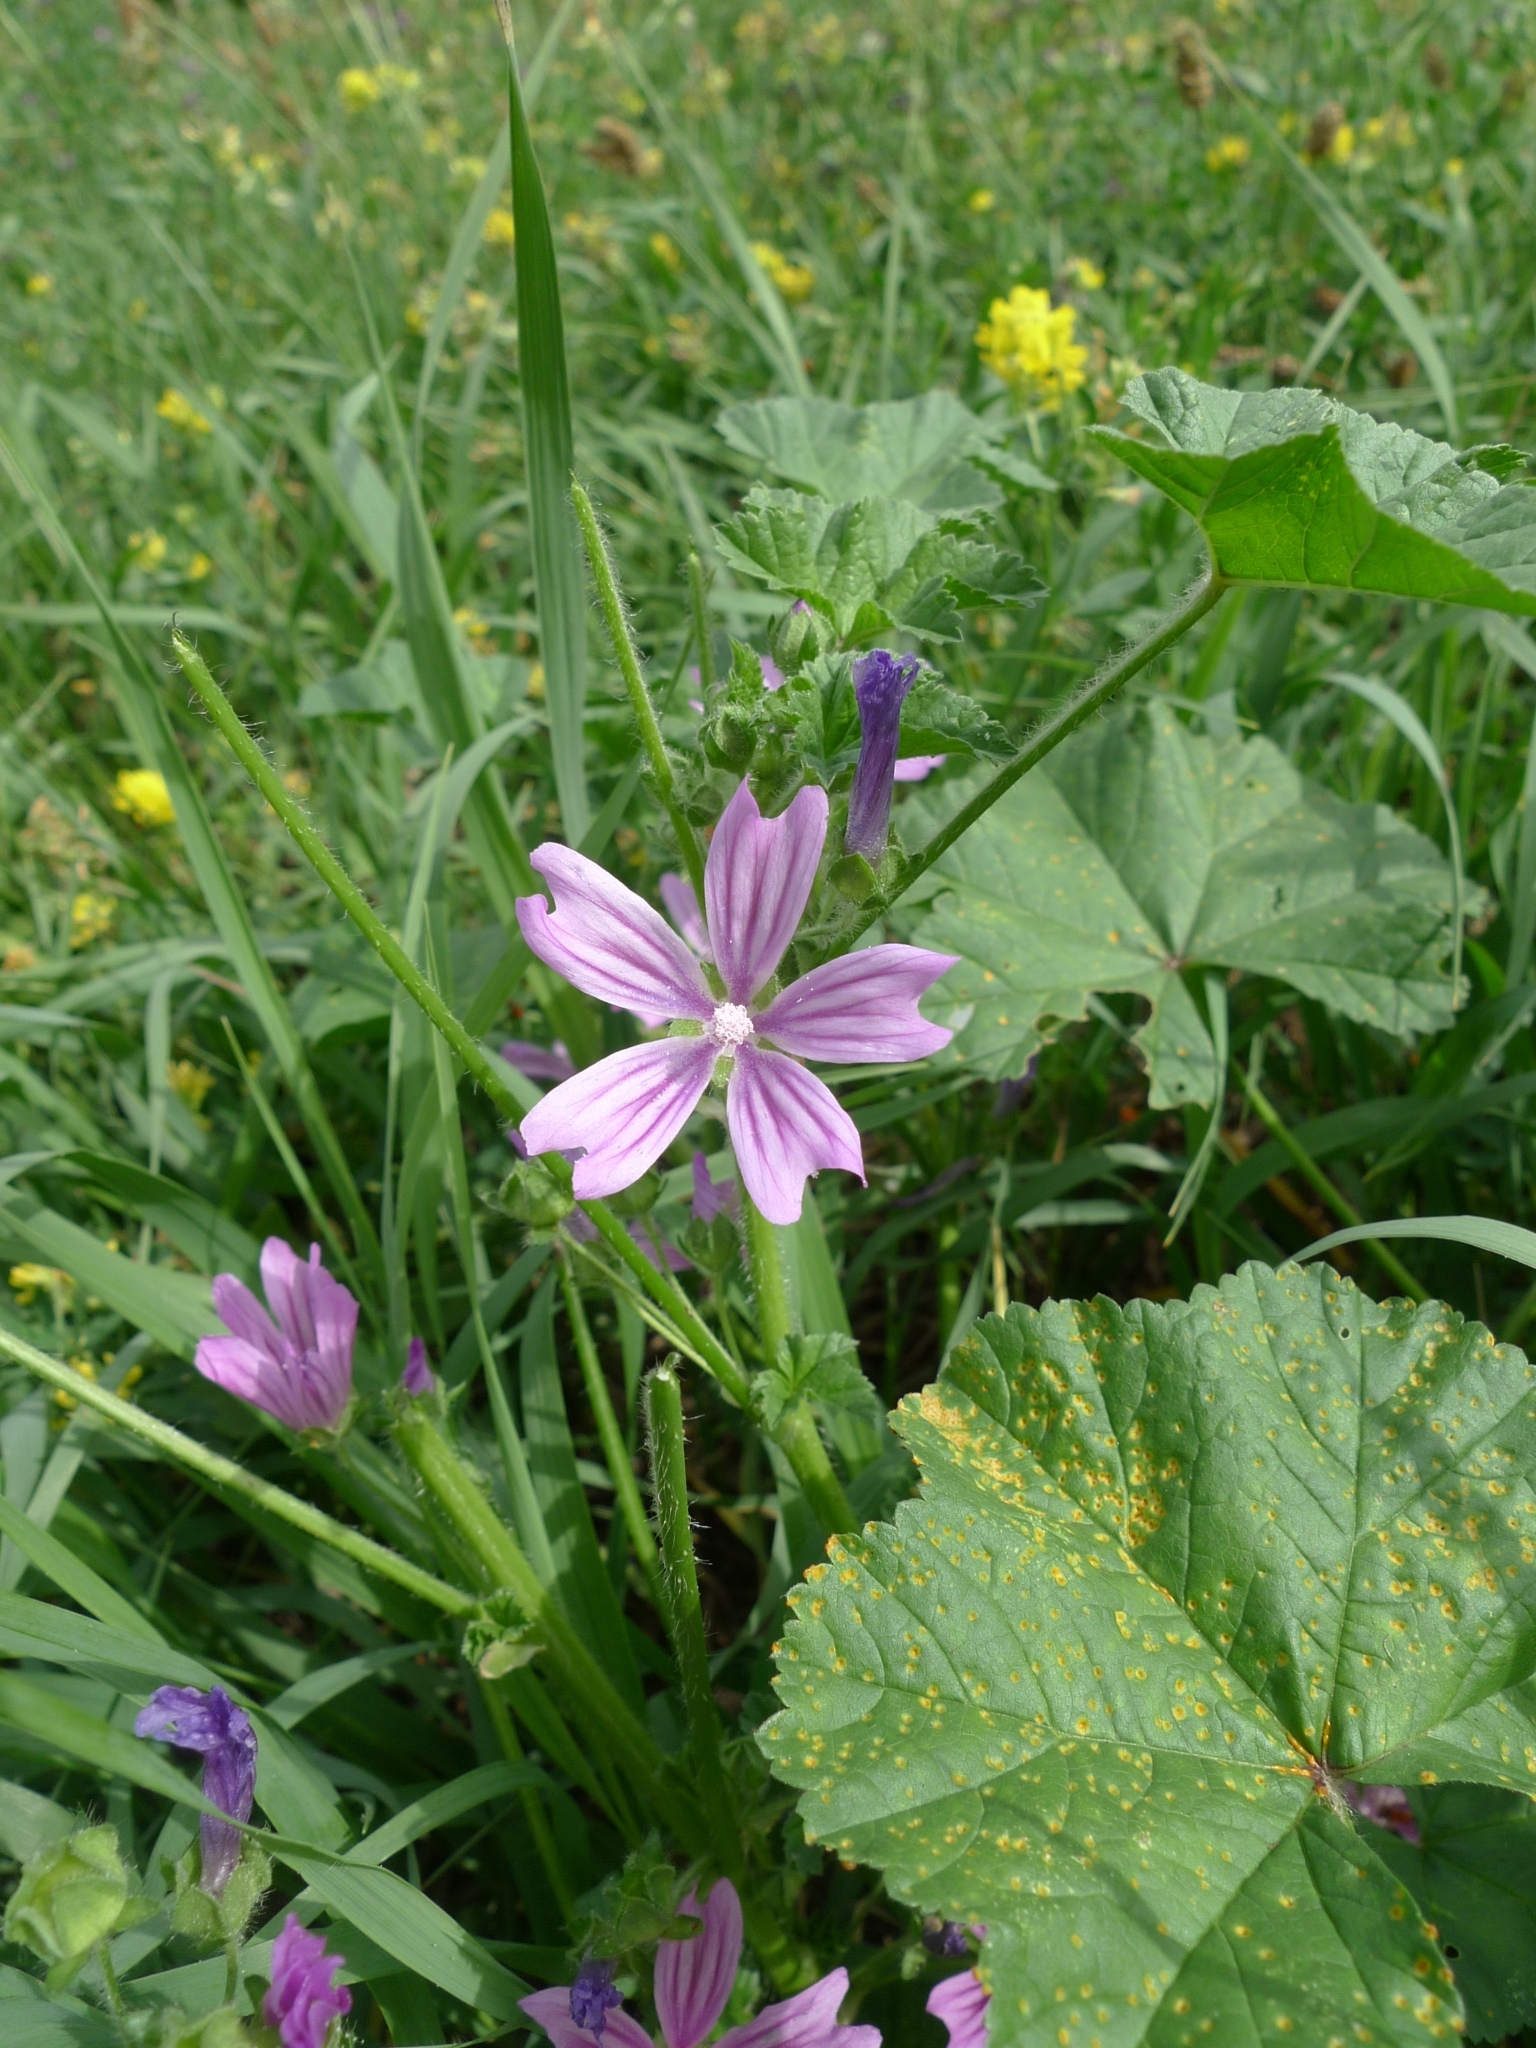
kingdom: Plantae
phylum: Tracheophyta
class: Magnoliopsida
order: Malvales
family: Malvaceae
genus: Malva
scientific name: Malva sylvestris
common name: Common mallow
